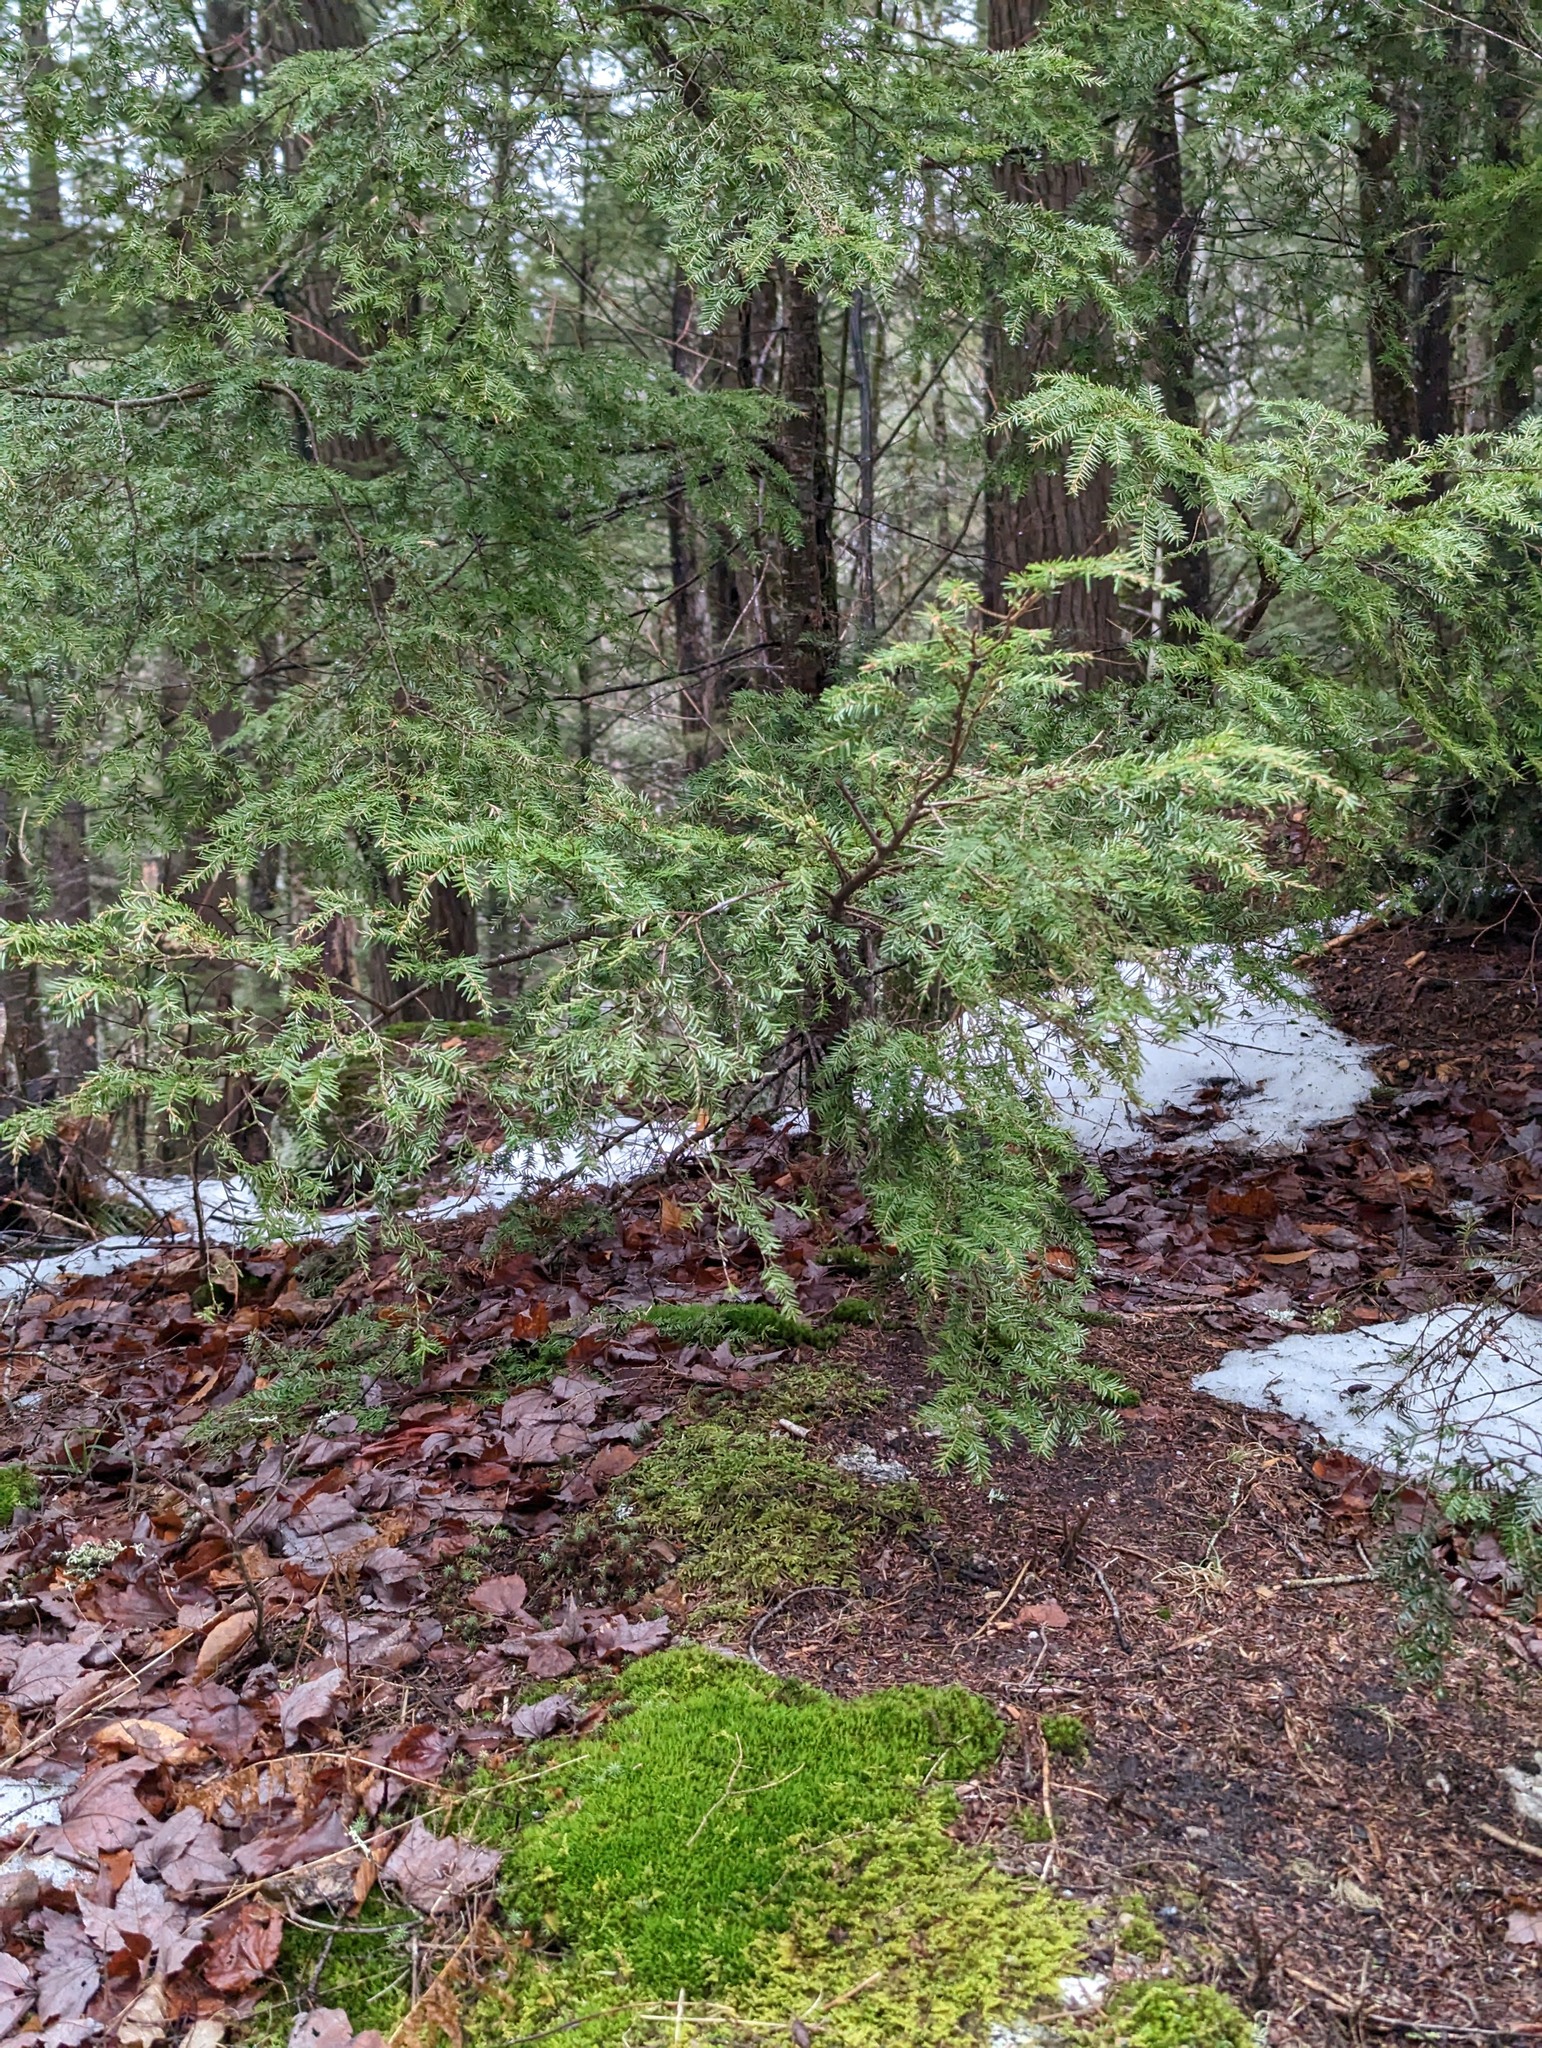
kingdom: Plantae
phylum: Tracheophyta
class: Pinopsida
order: Pinales
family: Pinaceae
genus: Tsuga
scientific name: Tsuga canadensis
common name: Eastern hemlock
